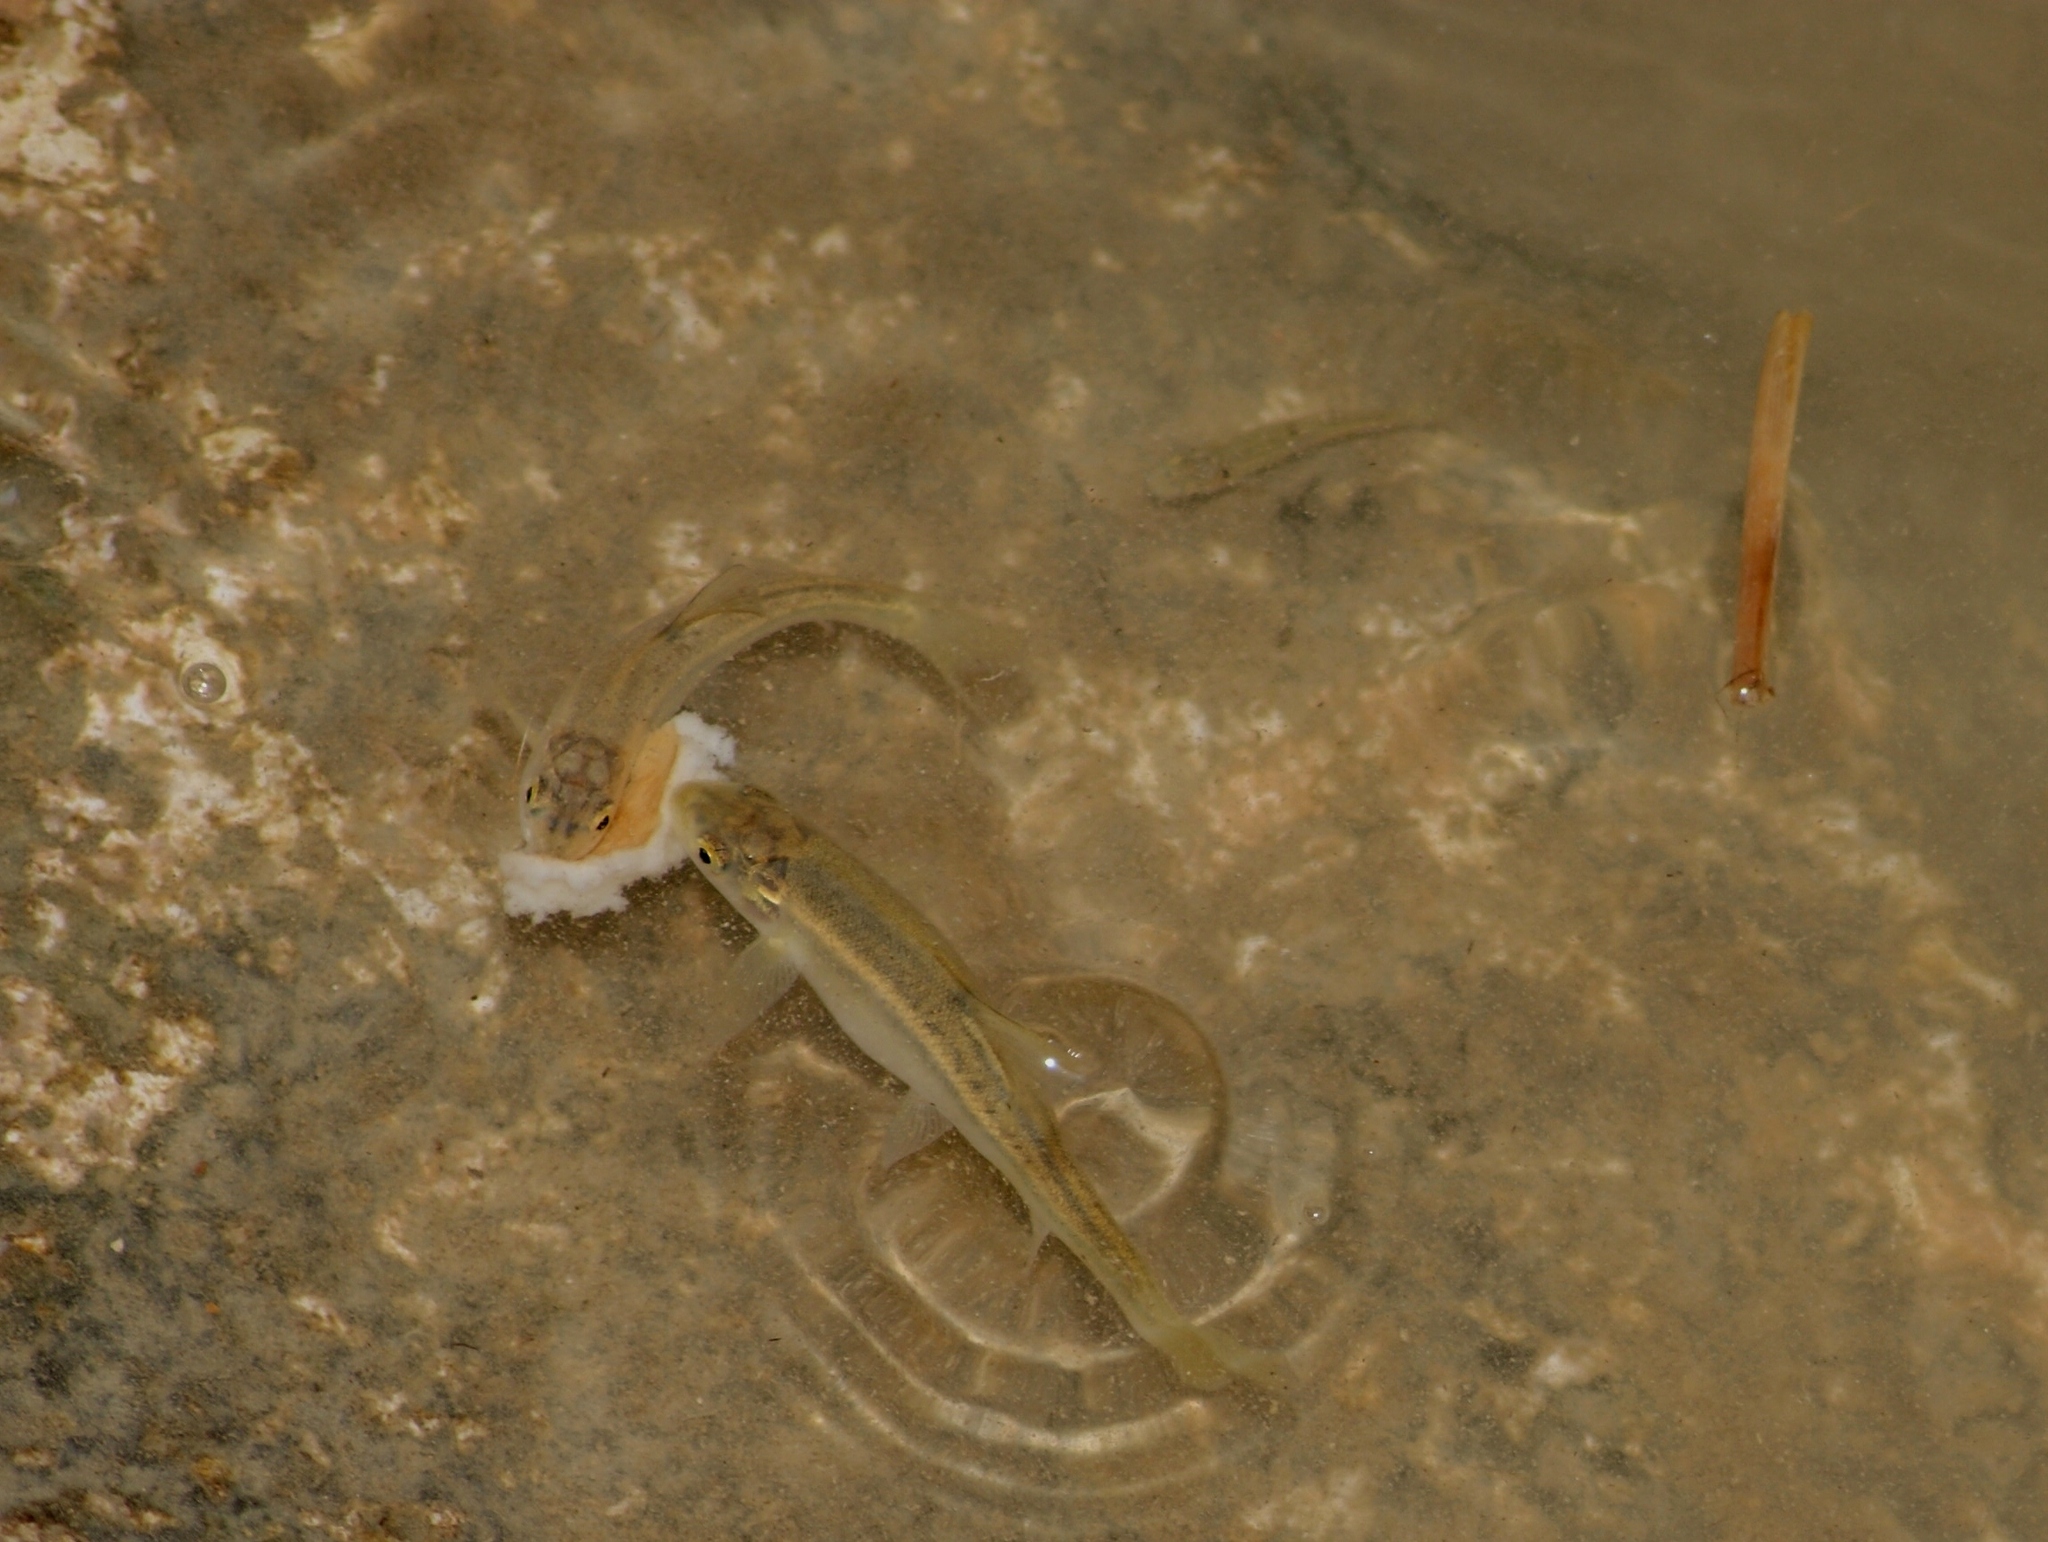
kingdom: Animalia
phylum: Chordata
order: Cypriniformes
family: Cyprinidae
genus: Capoeta
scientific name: Capoeta damascina
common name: Levantine scraper
